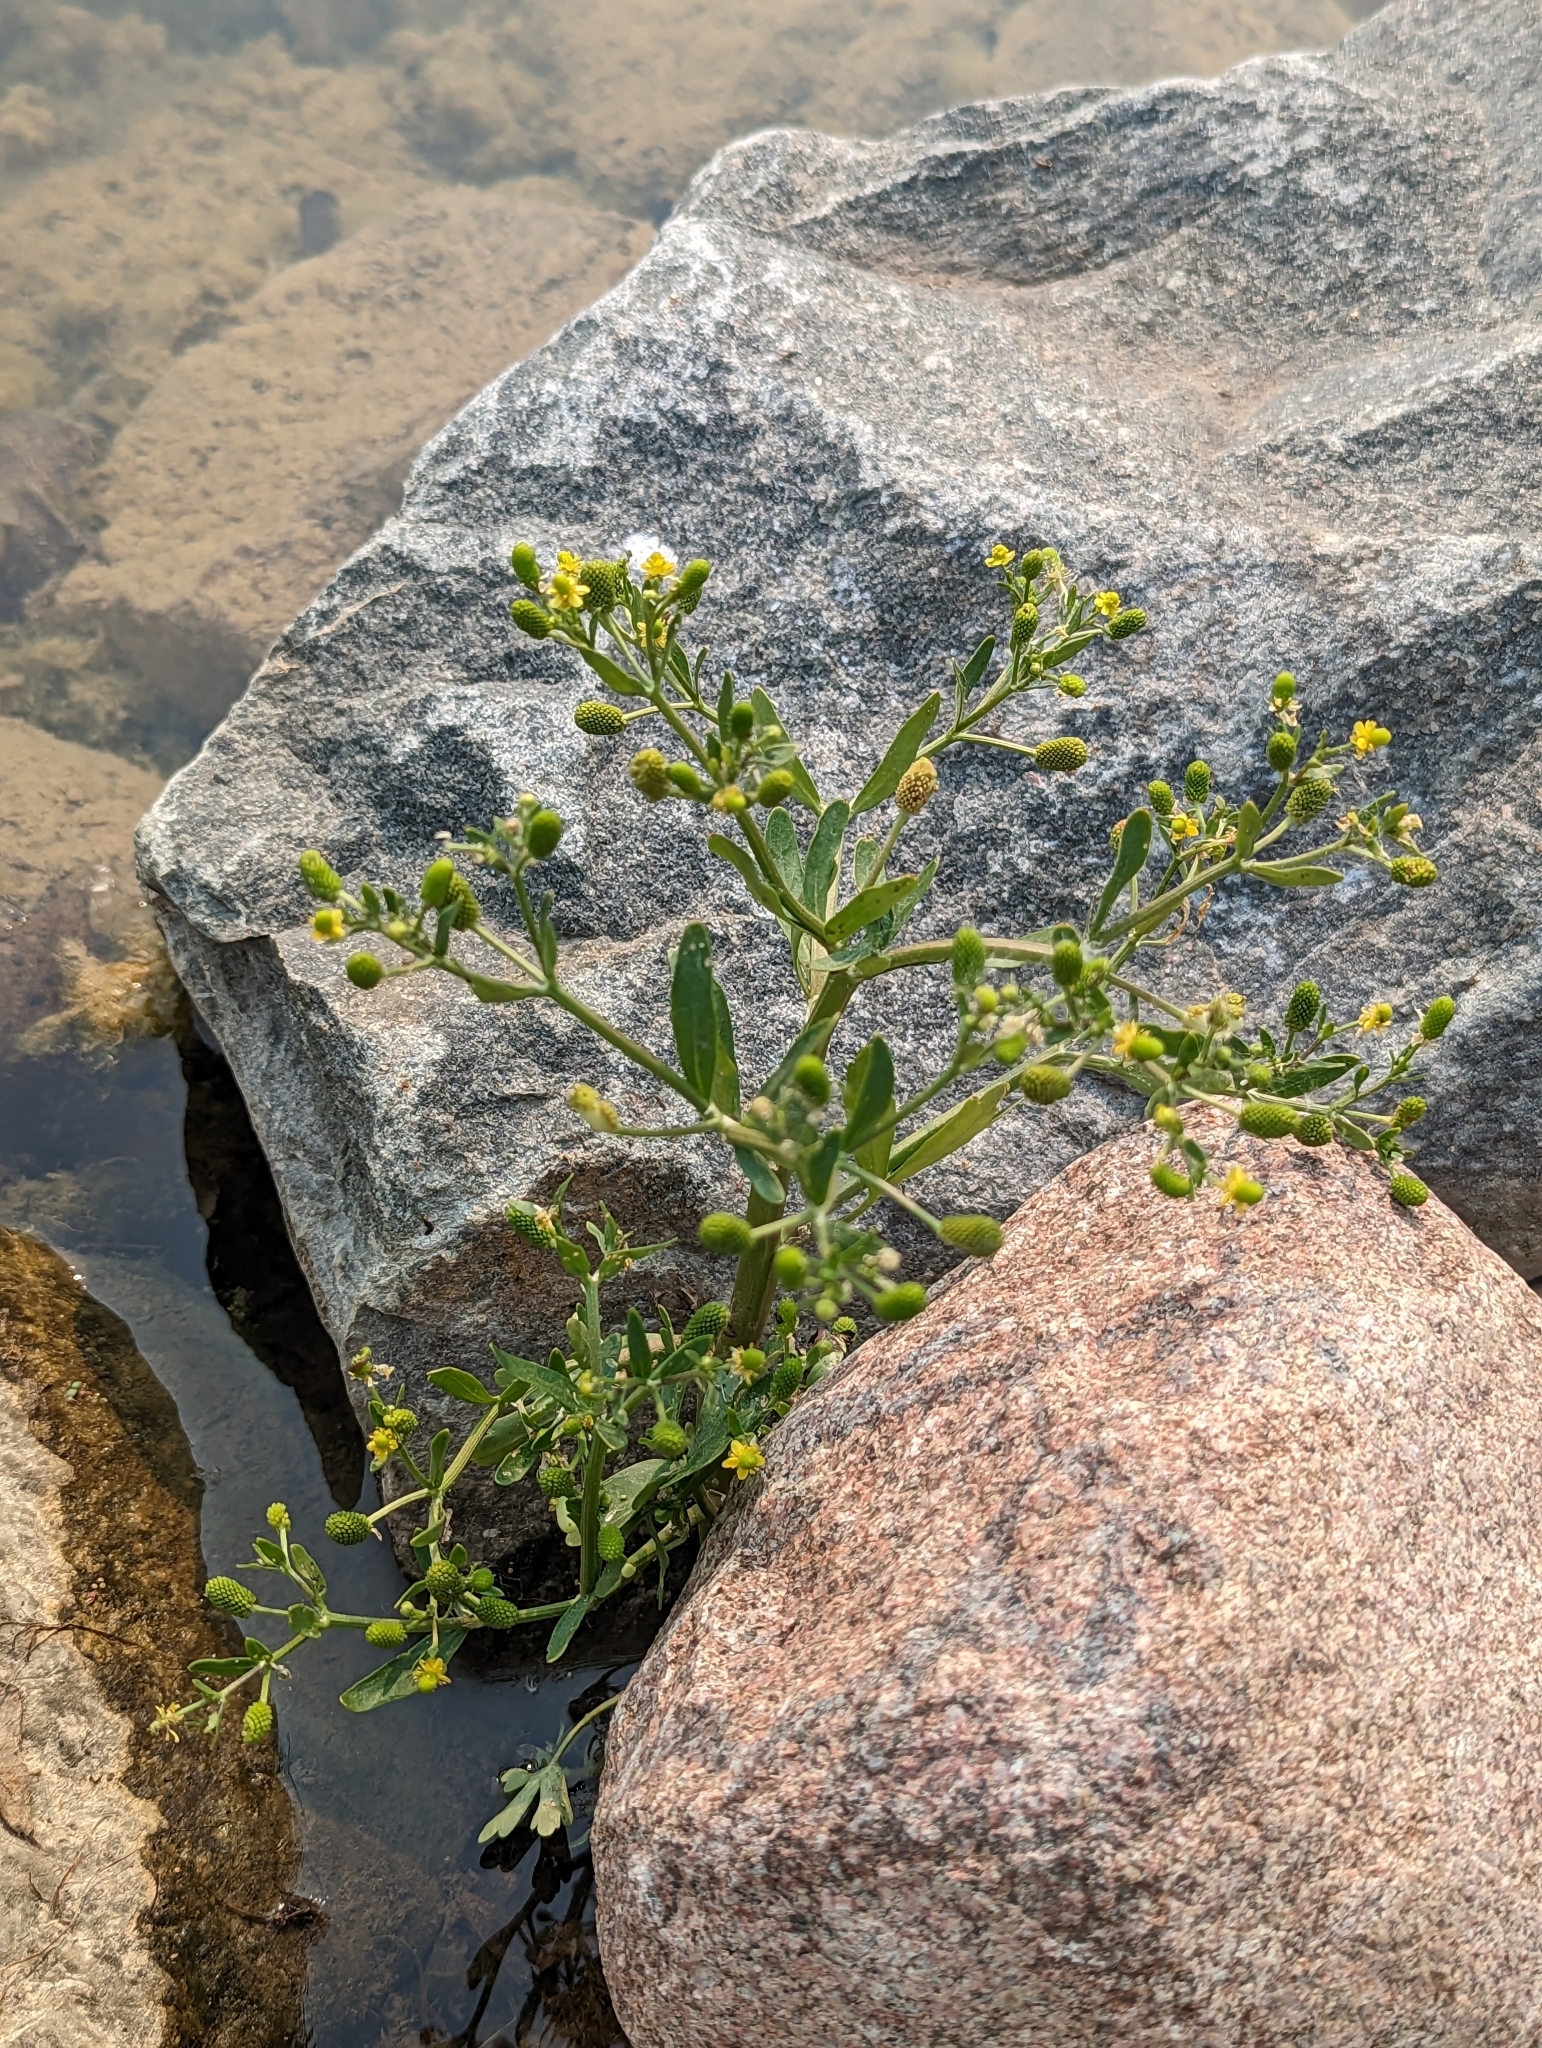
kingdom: Plantae
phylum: Tracheophyta
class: Magnoliopsida
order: Ranunculales
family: Ranunculaceae
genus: Ranunculus
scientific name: Ranunculus sceleratus
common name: Celery-leaved buttercup
